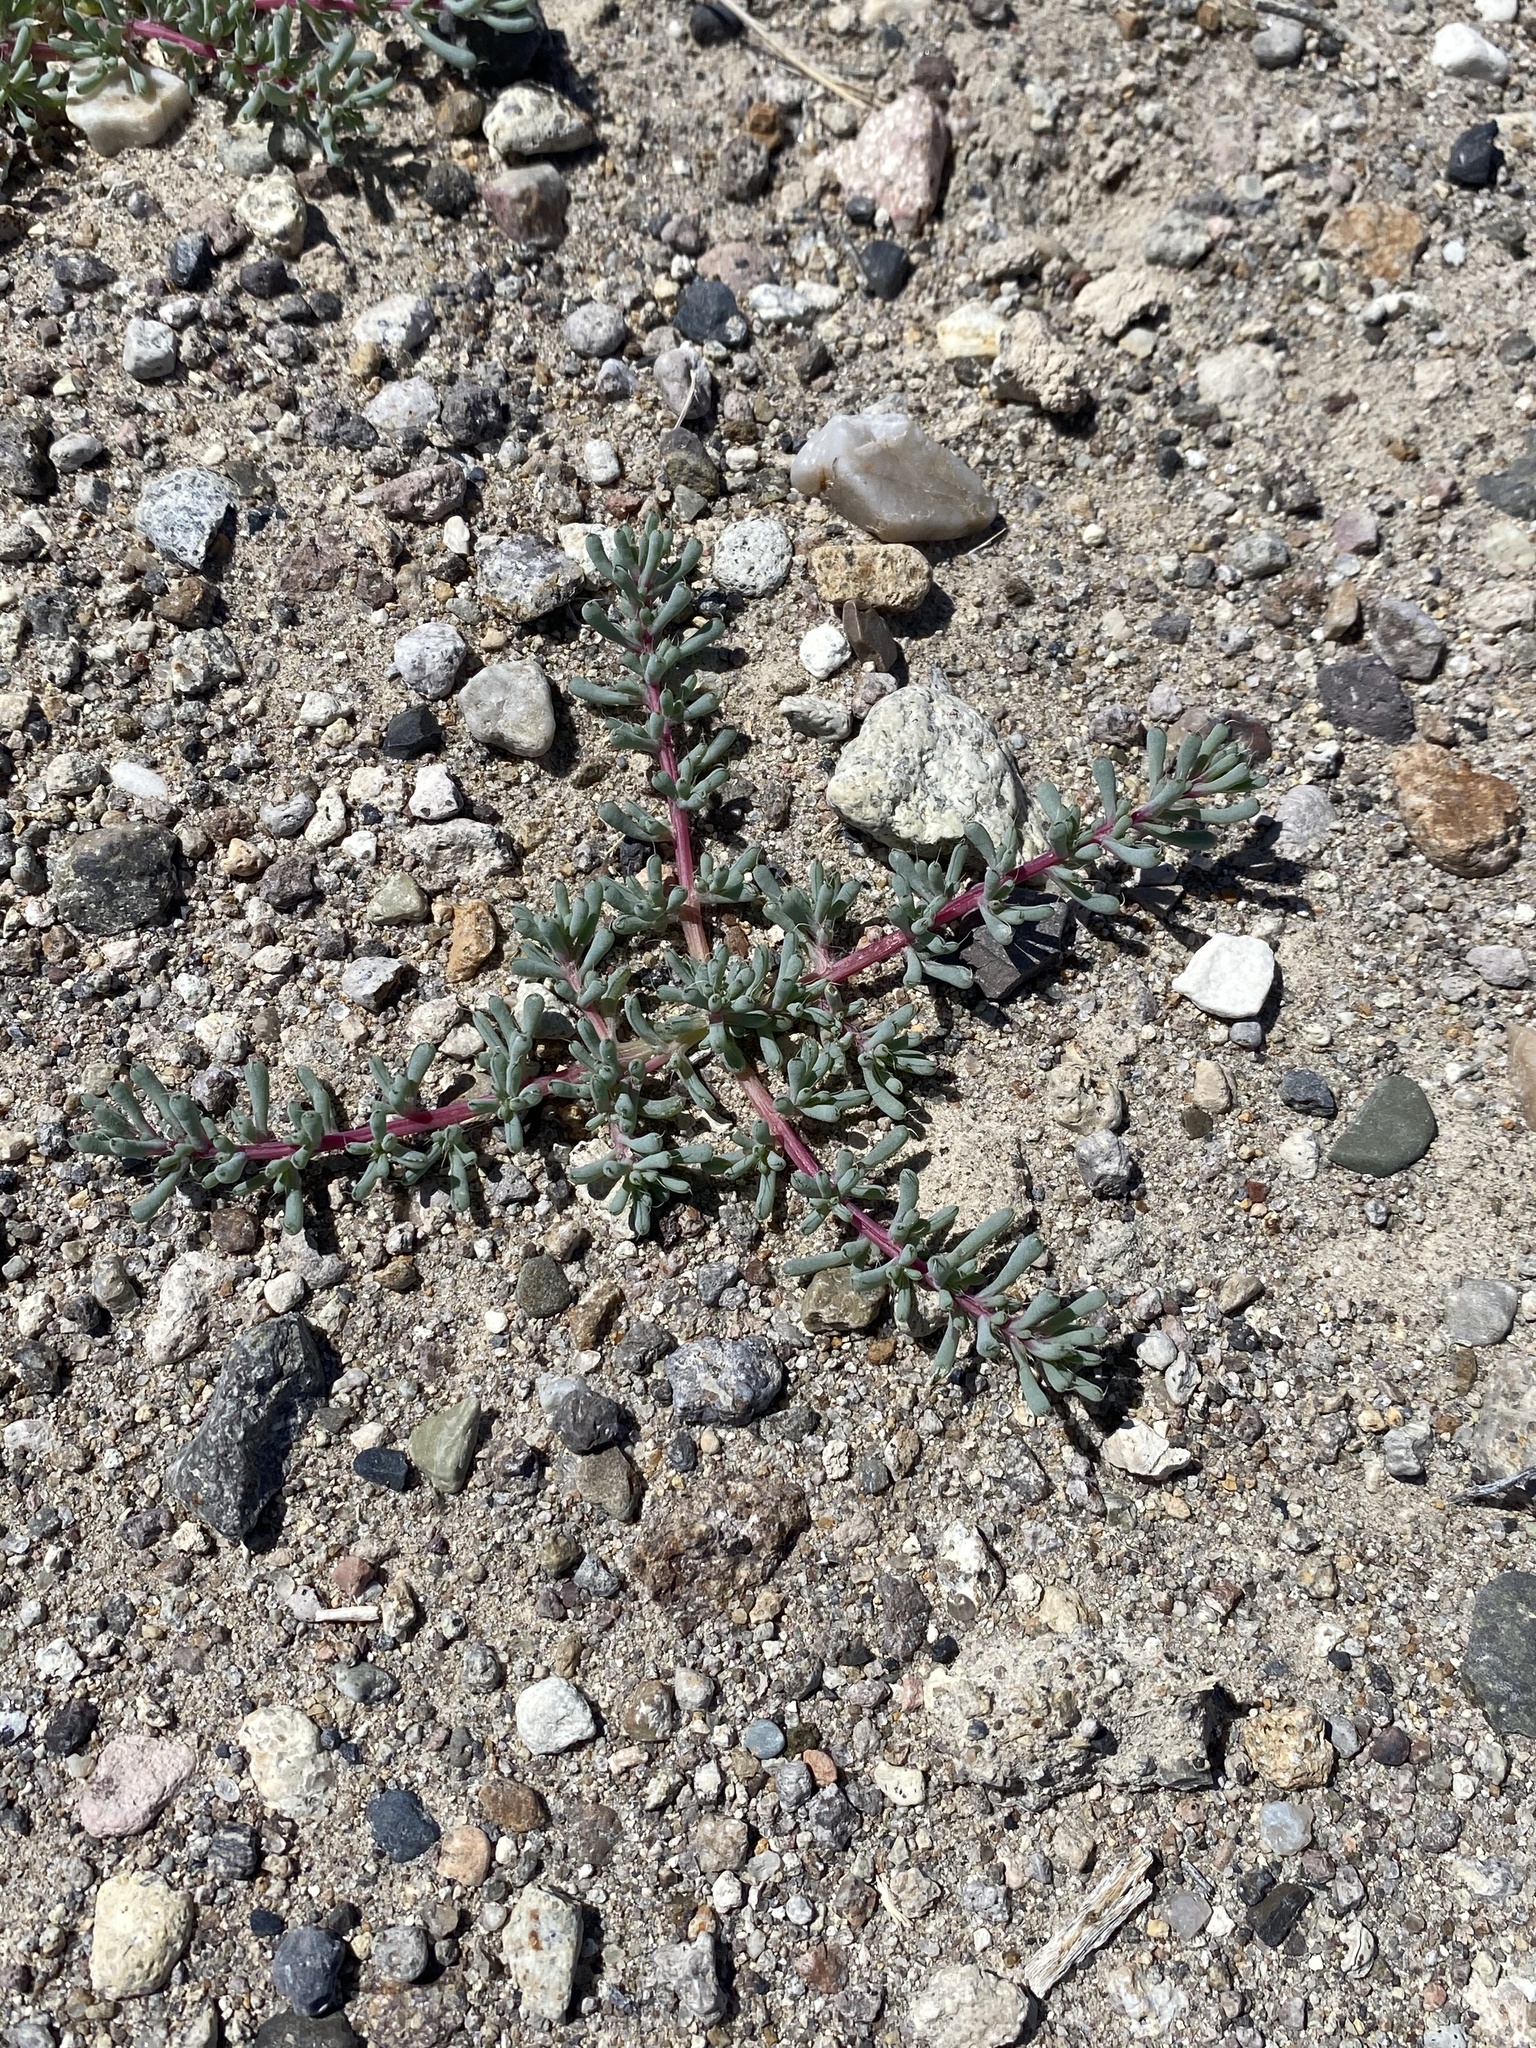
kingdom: Plantae
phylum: Tracheophyta
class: Magnoliopsida
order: Caryophyllales
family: Amaranthaceae
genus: Halogeton
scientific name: Halogeton glomeratus
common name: Saltlover
